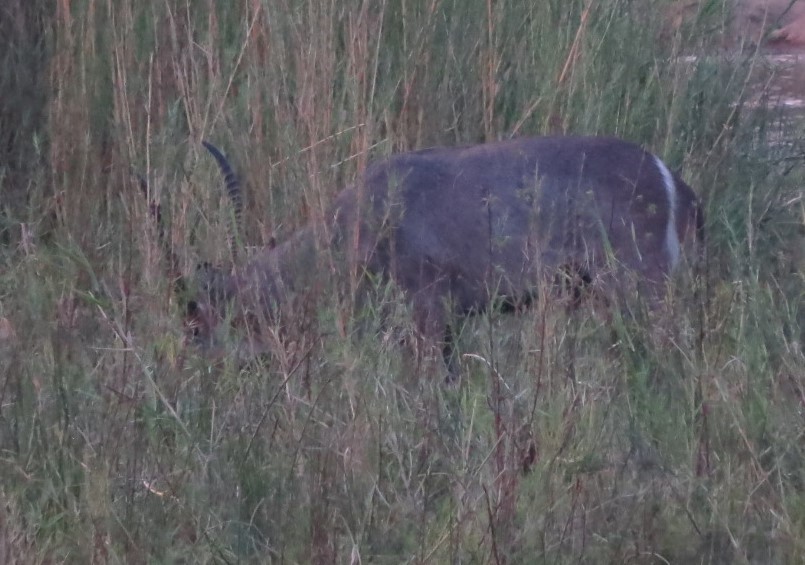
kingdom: Animalia
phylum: Chordata
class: Mammalia
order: Artiodactyla
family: Bovidae
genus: Kobus
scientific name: Kobus ellipsiprymnus
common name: Waterbuck
